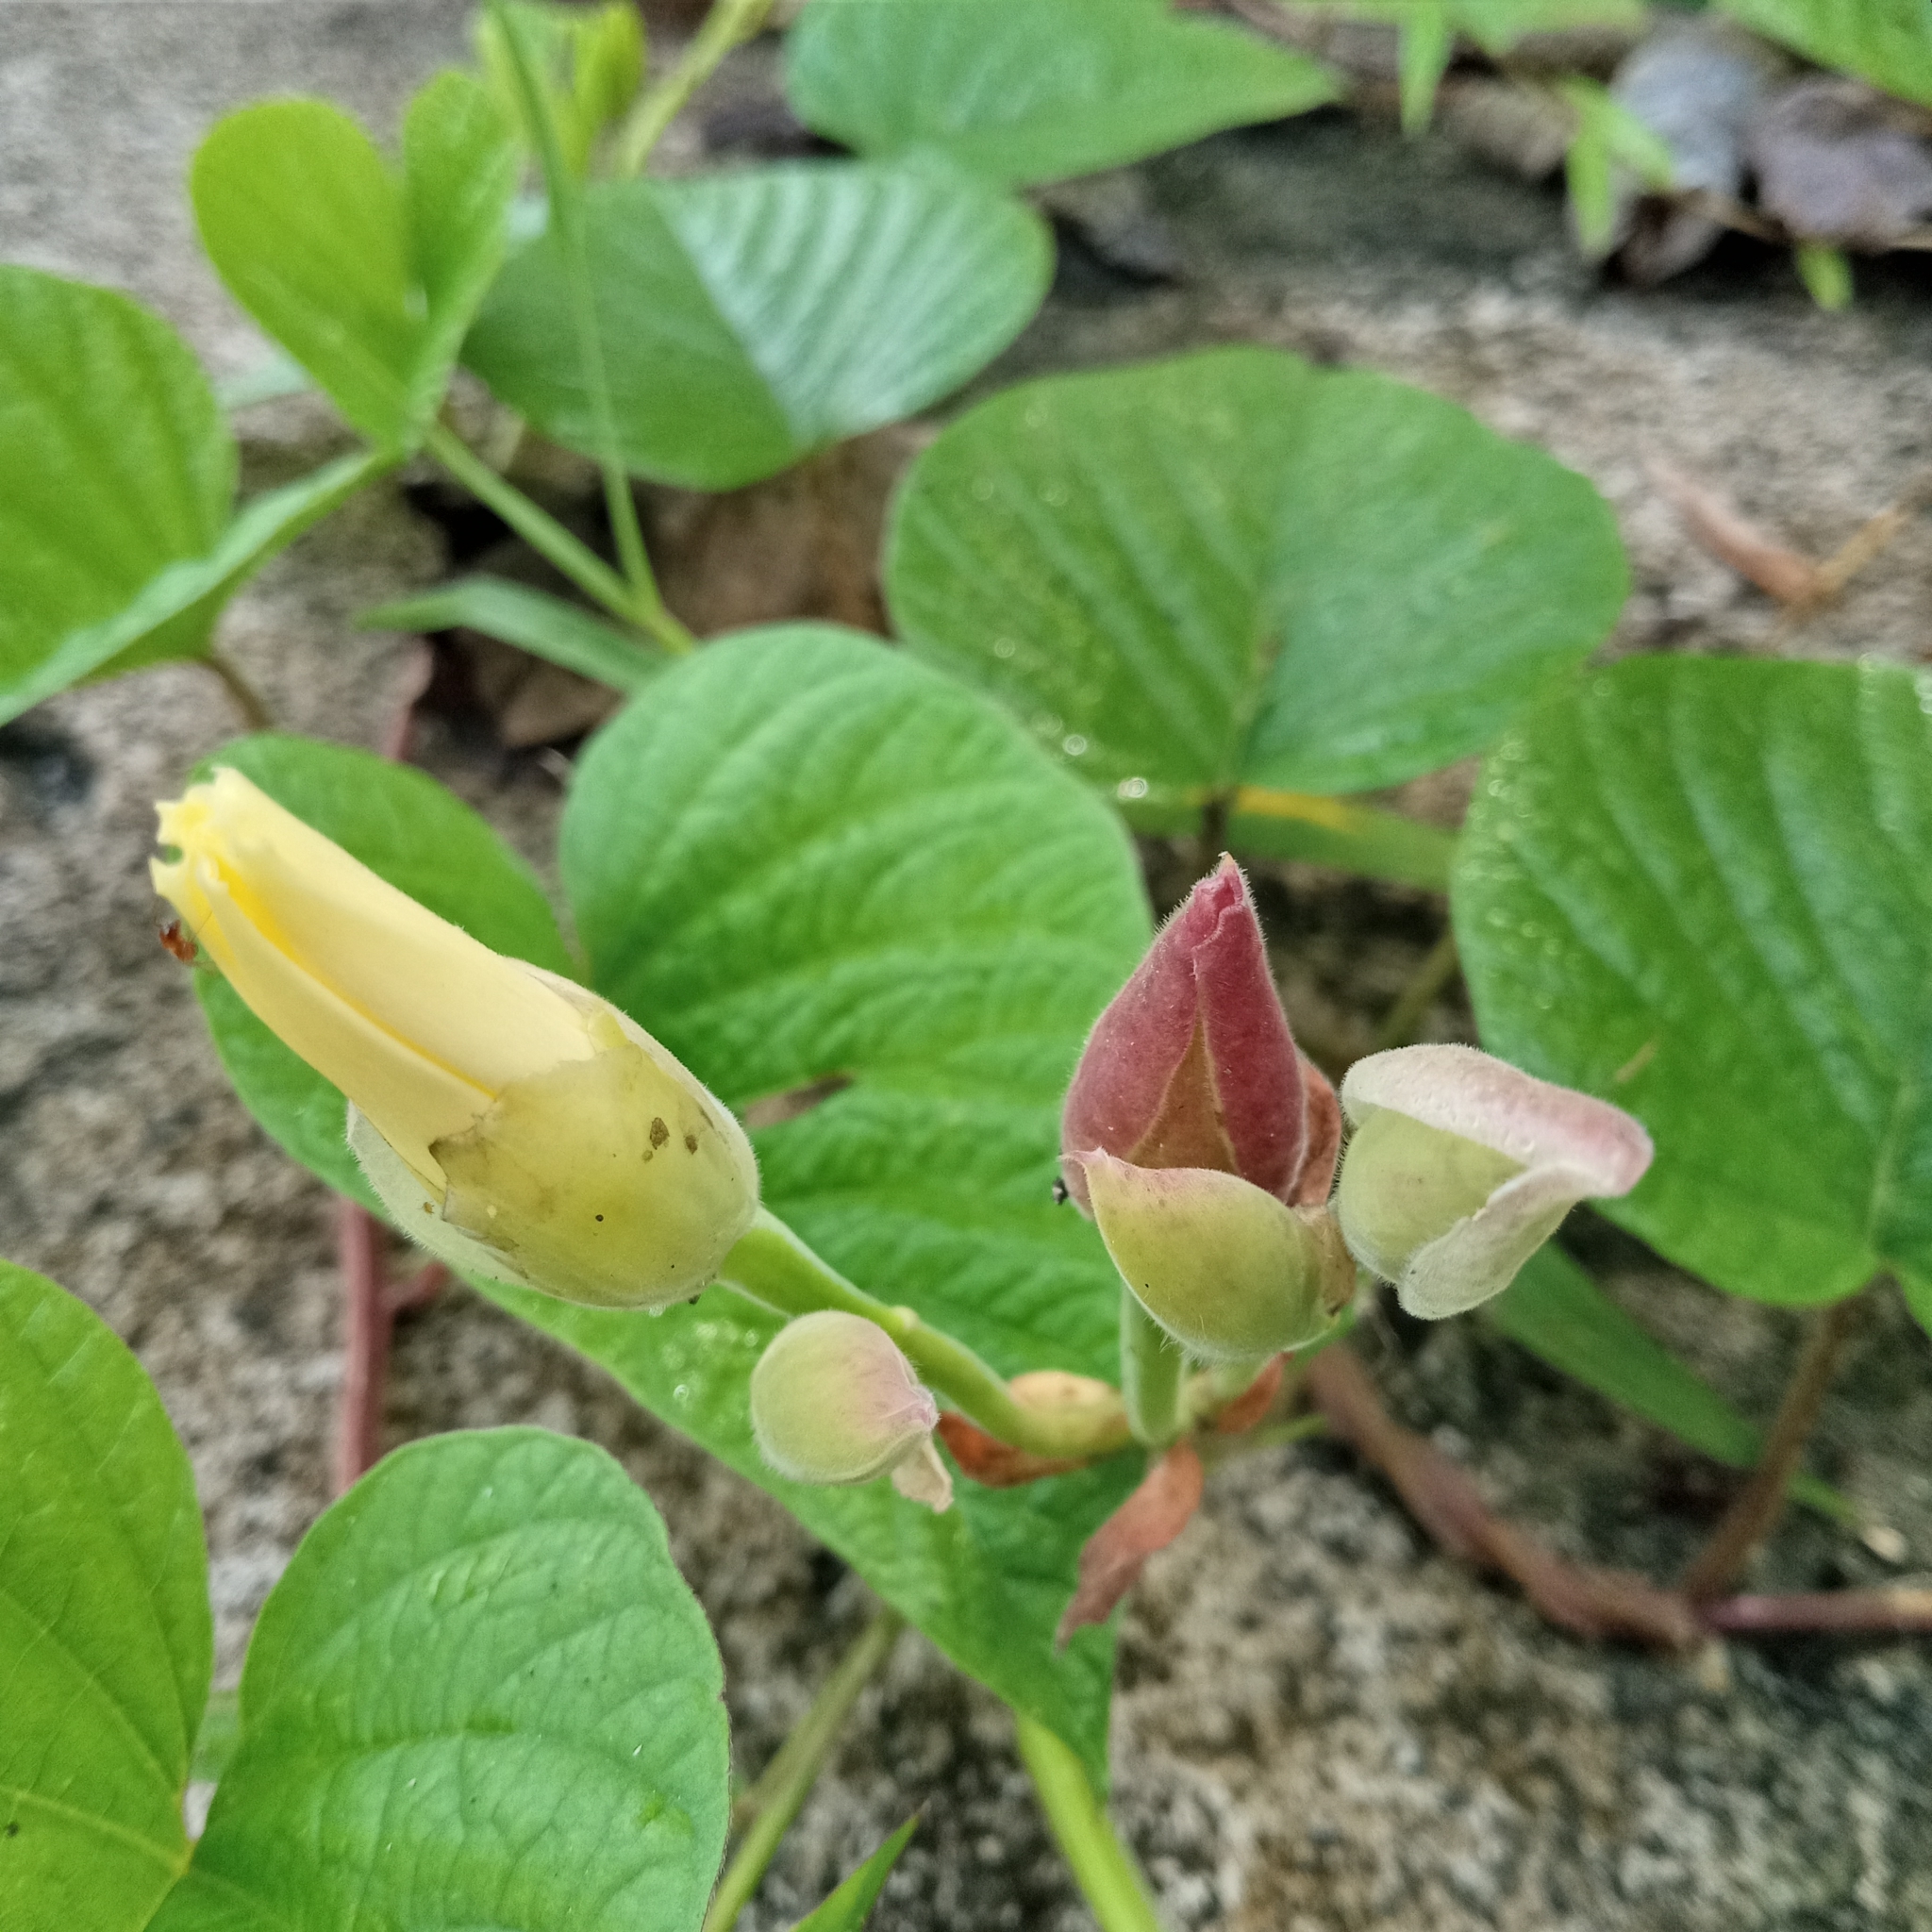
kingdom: Plantae
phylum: Tracheophyta
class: Magnoliopsida
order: Solanales
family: Convolvulaceae
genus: Operculina
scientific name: Operculina turpethum
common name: Transparent wood-rose
